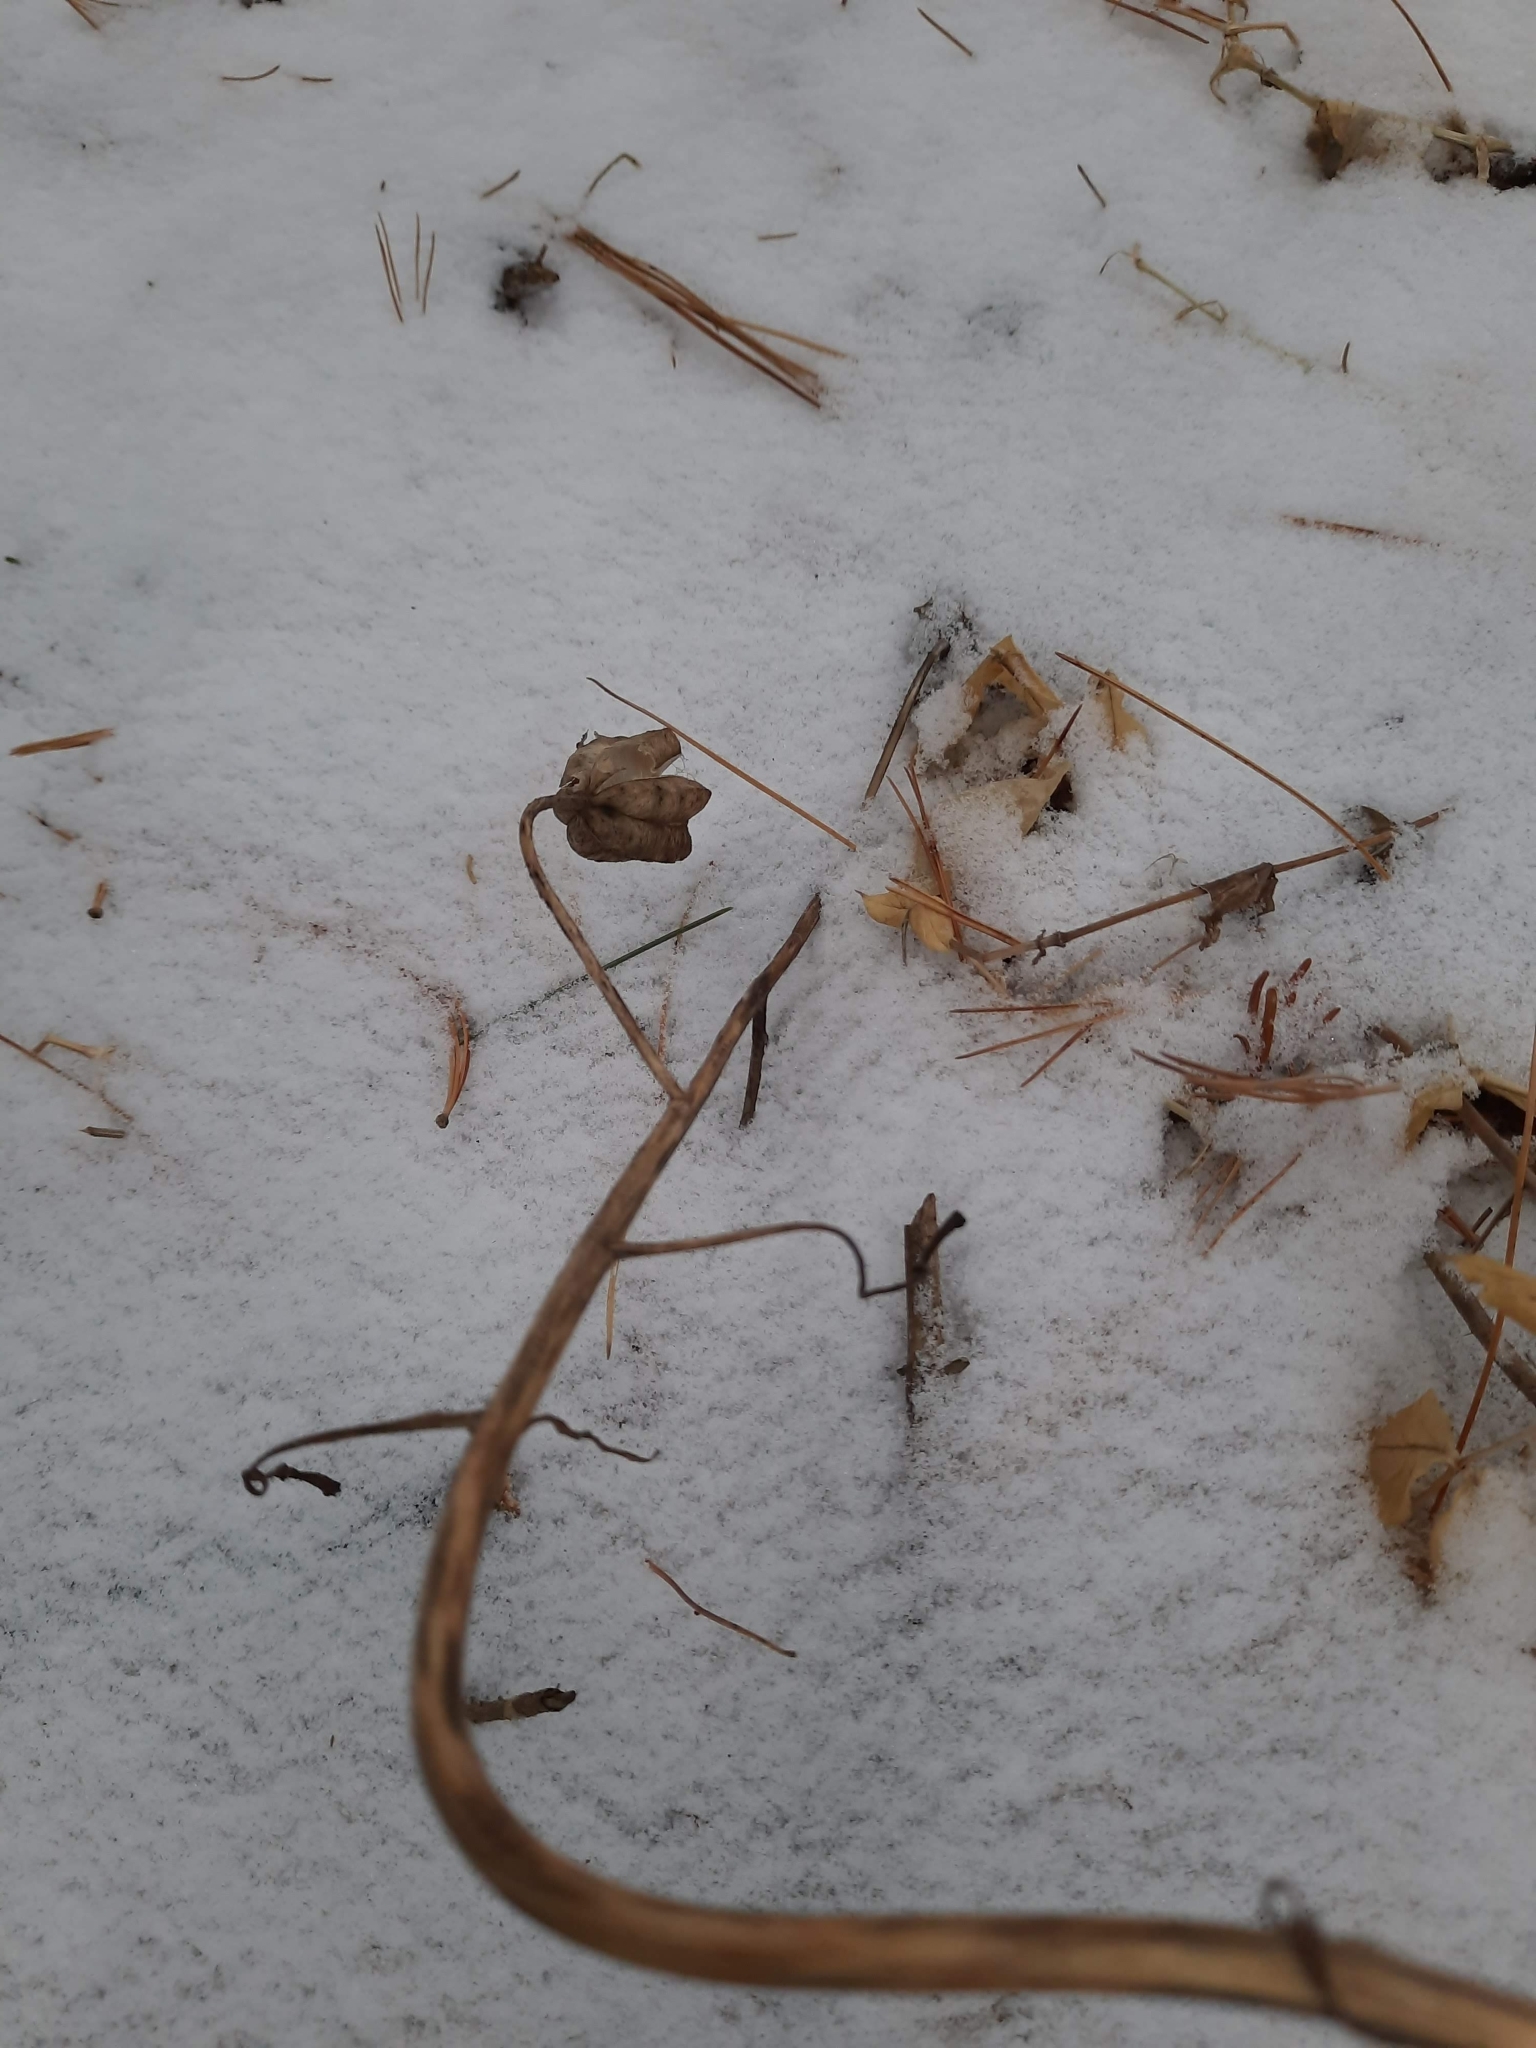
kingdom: Plantae
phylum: Tracheophyta
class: Liliopsida
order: Liliales
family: Liliaceae
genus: Lilium
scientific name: Lilium martagon
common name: Martagon lily
